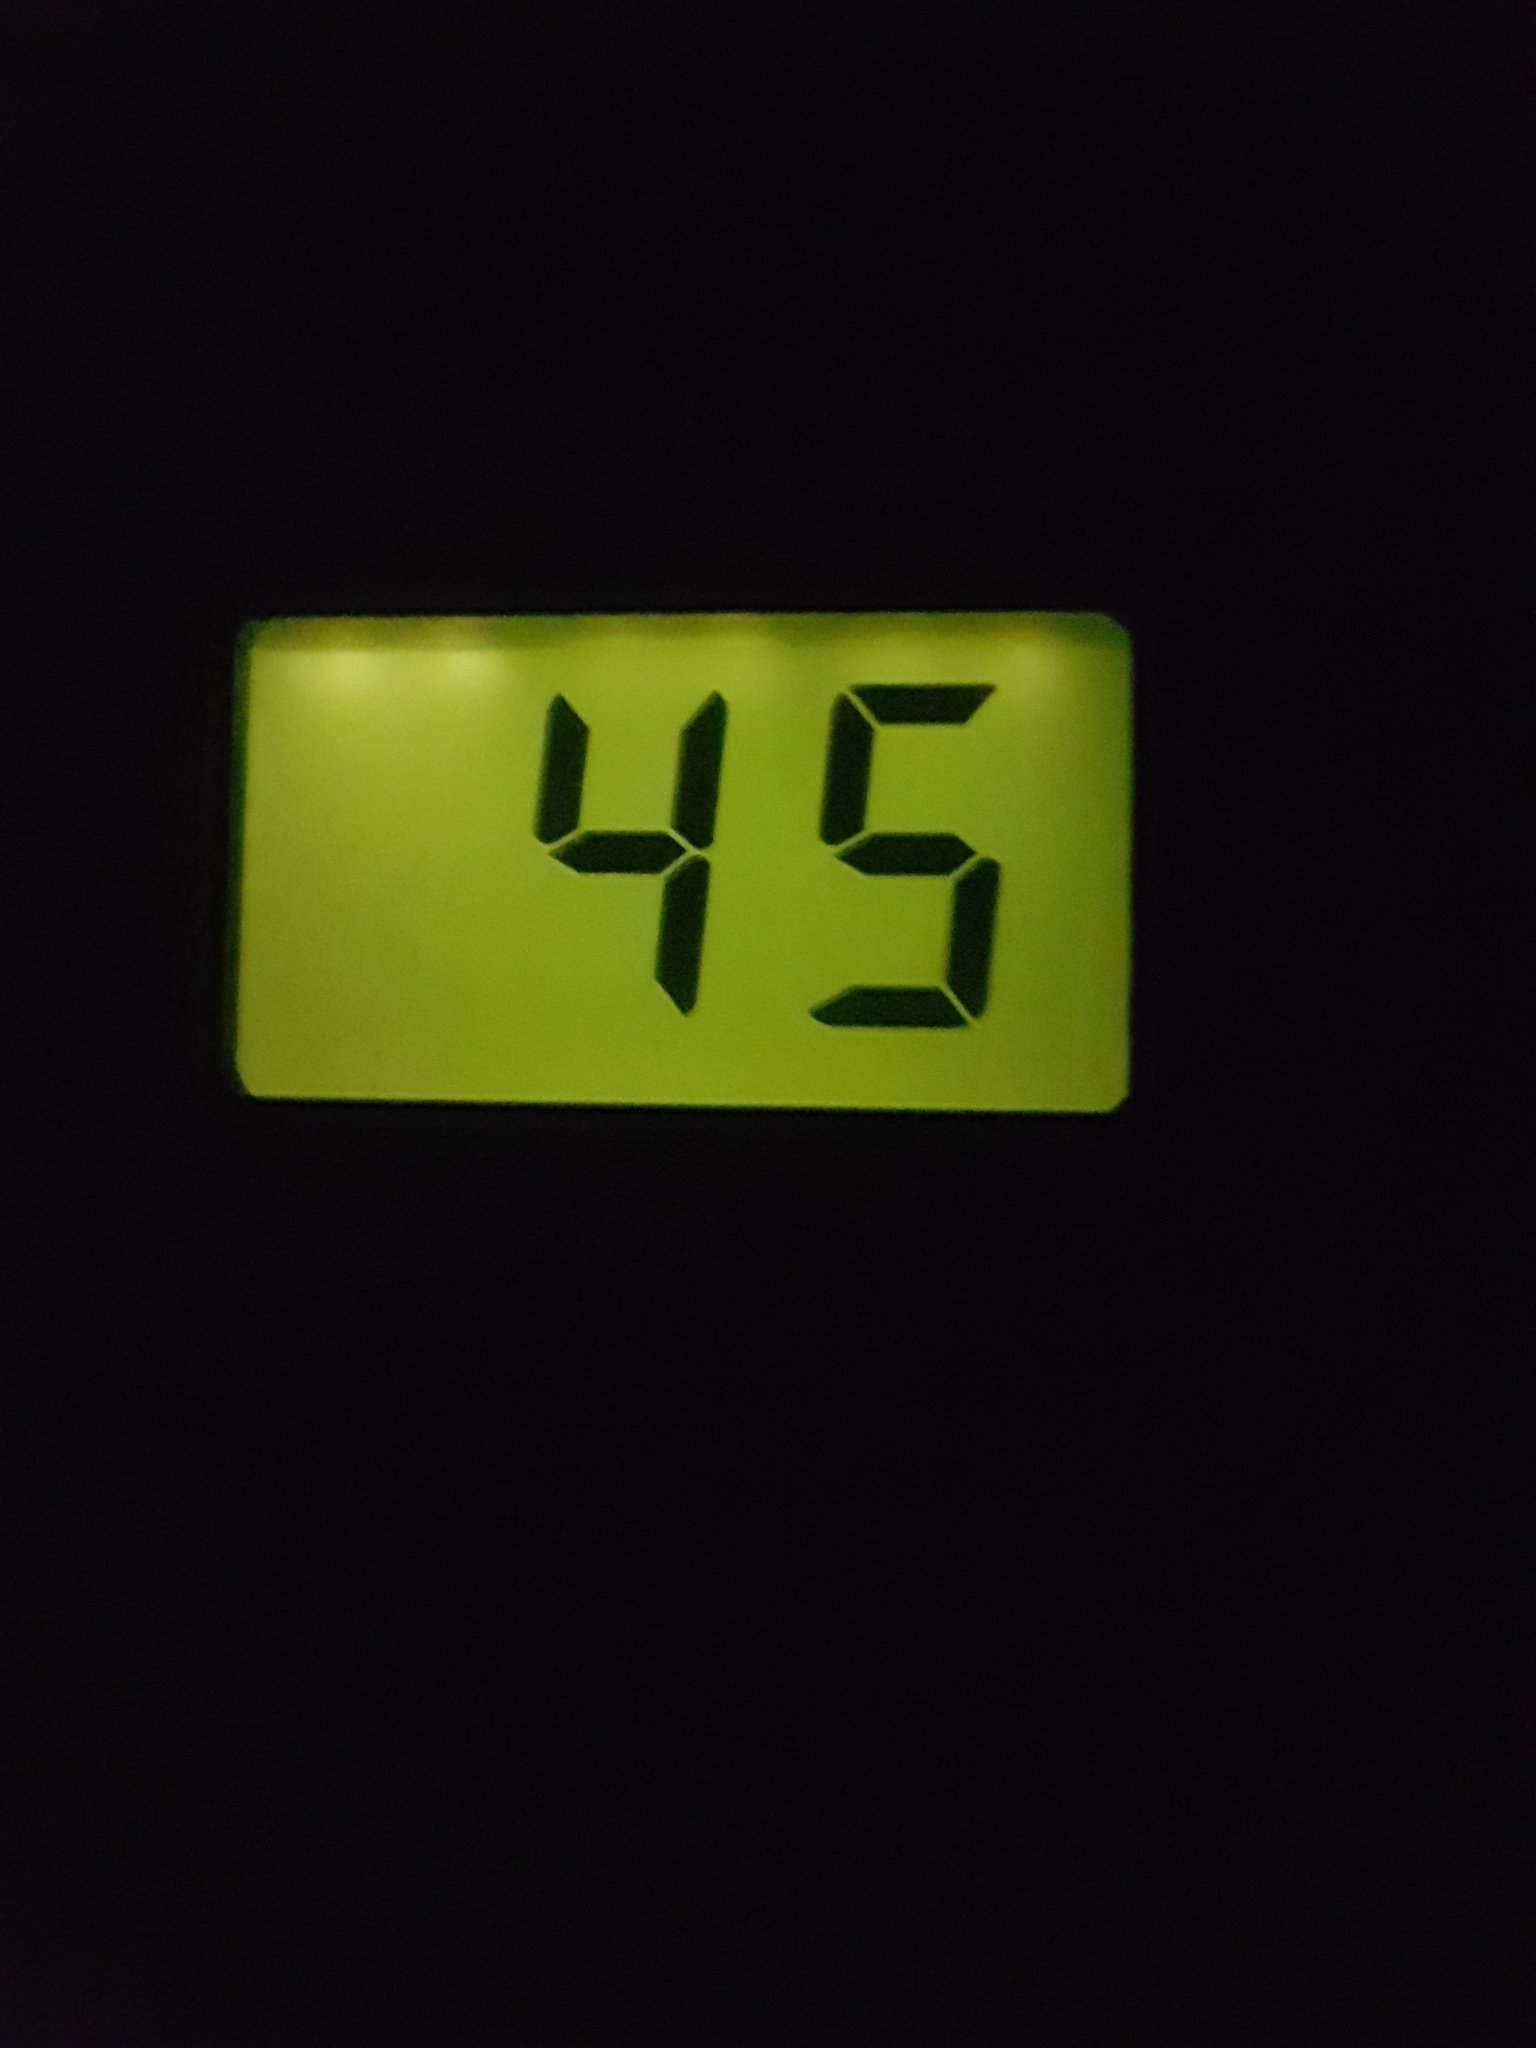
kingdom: Animalia
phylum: Chordata
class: Mammalia
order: Chiroptera
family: Vespertilionidae
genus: Pipistrellus
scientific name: Pipistrellus pipistrellus
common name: Common pipistrelle
